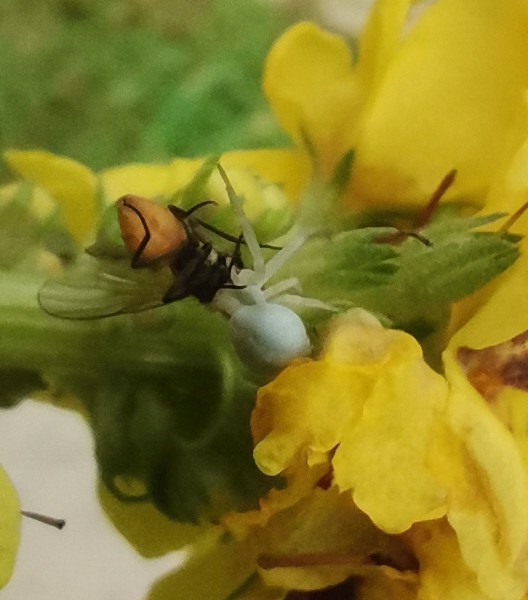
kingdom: Animalia
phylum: Arthropoda
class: Arachnida
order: Araneae
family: Thomisidae
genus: Misumena
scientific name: Misumena vatia
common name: Goldenrod crab spider
